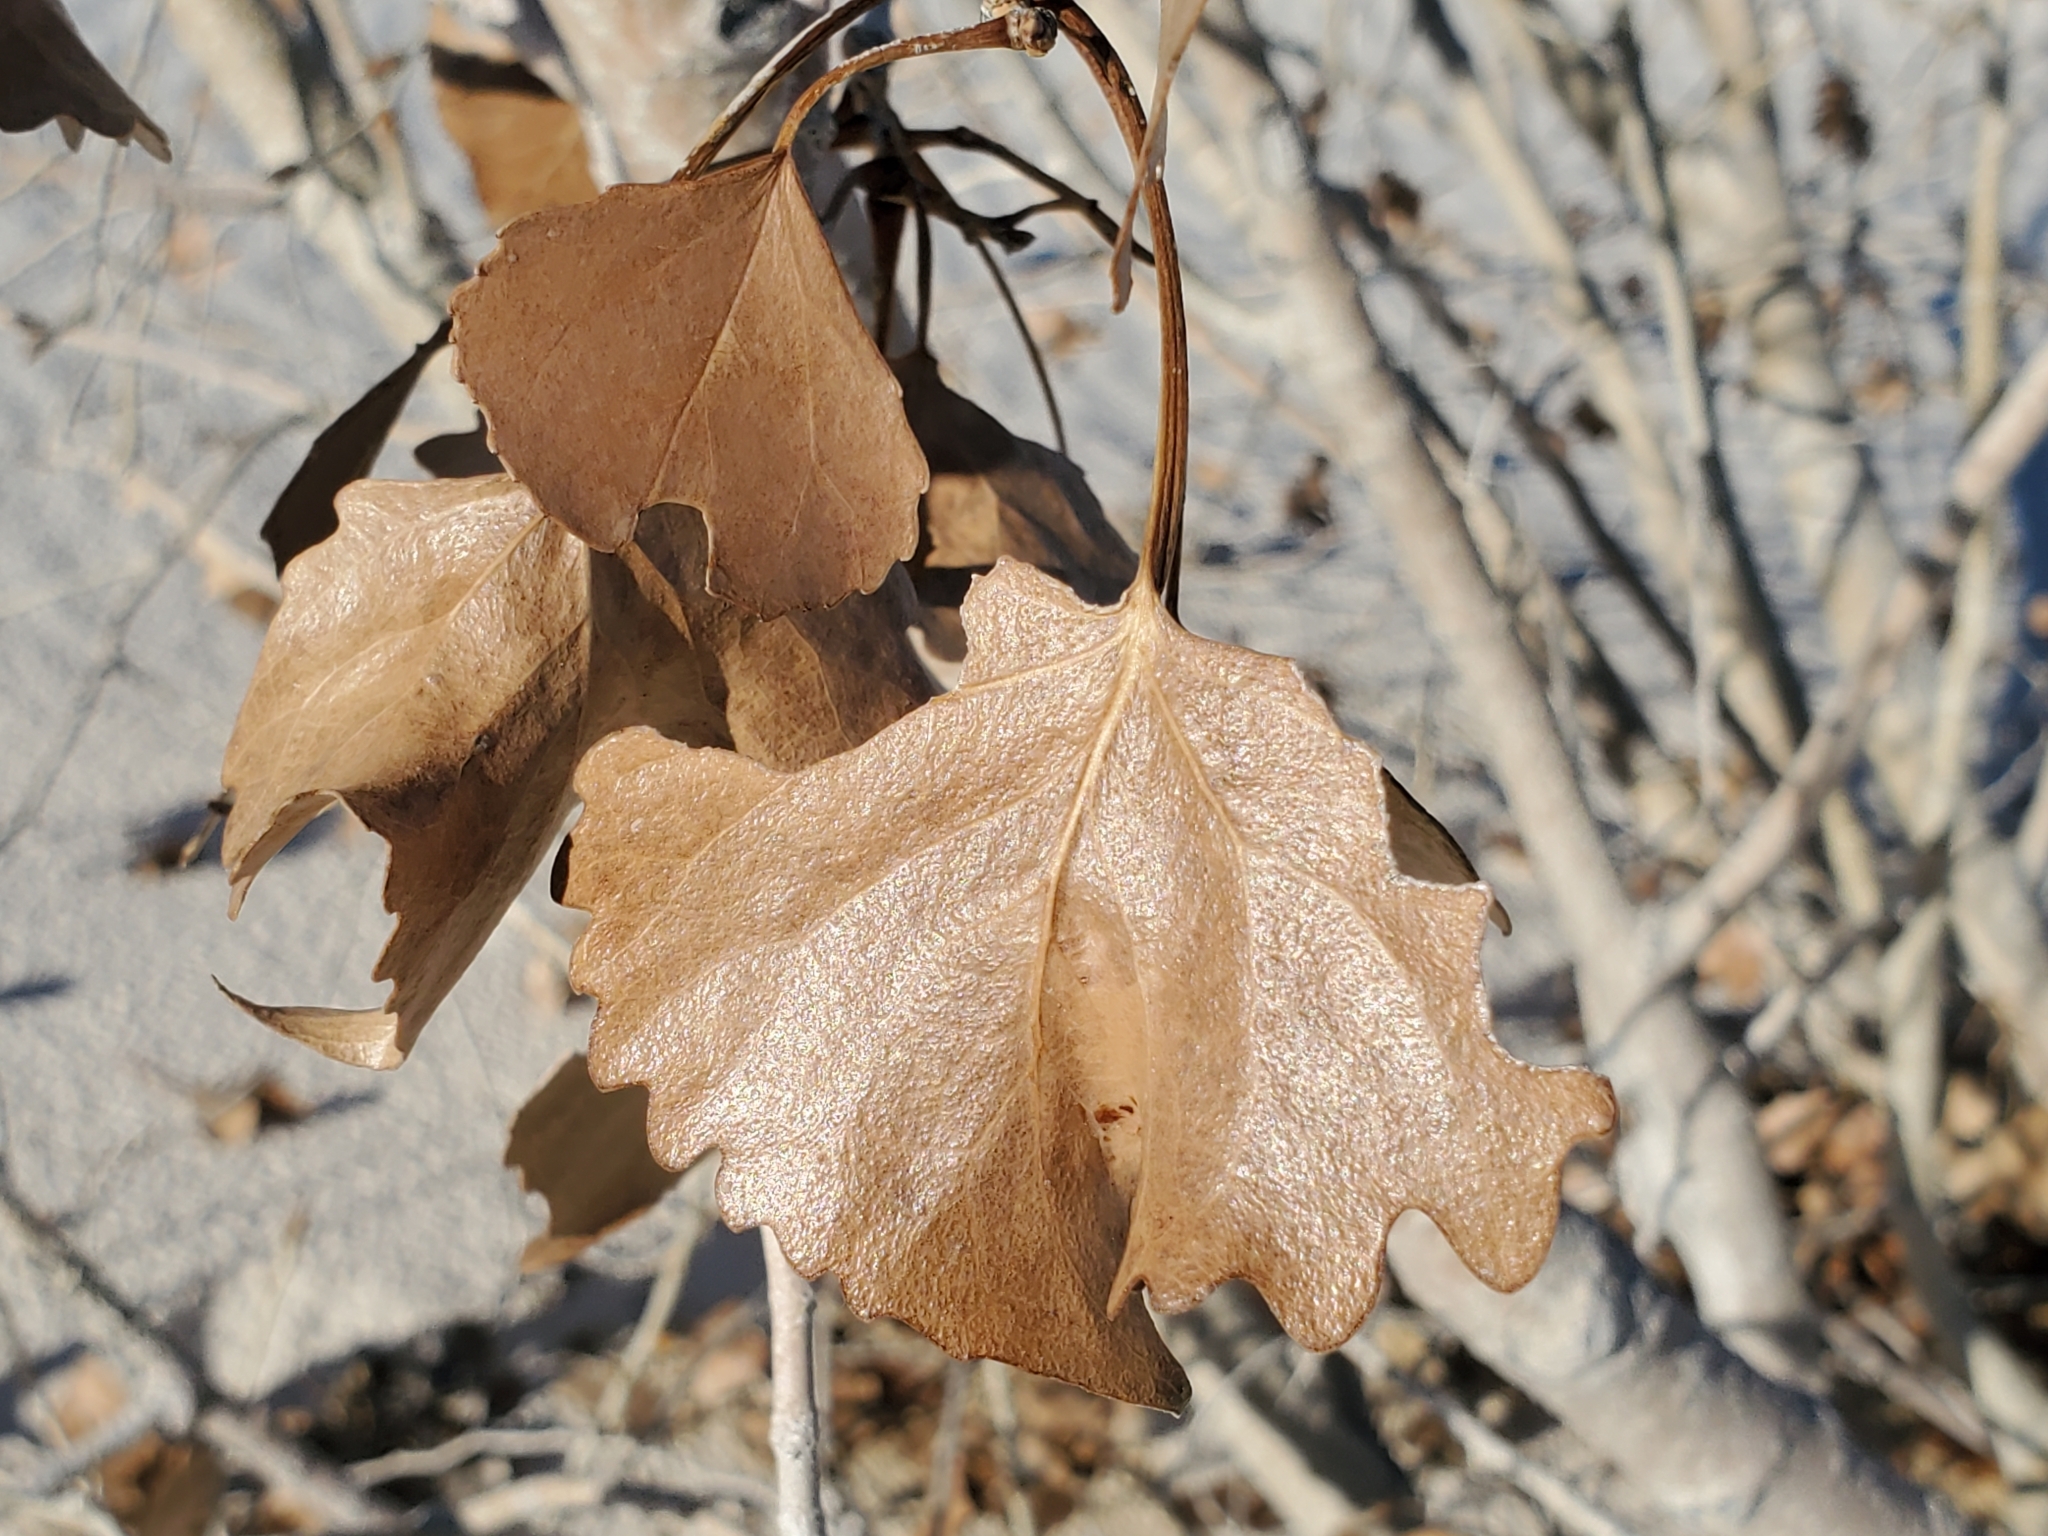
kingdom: Plantae
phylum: Tracheophyta
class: Magnoliopsida
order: Malpighiales
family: Salicaceae
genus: Populus
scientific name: Populus deltoides
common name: Eastern cottonwood
